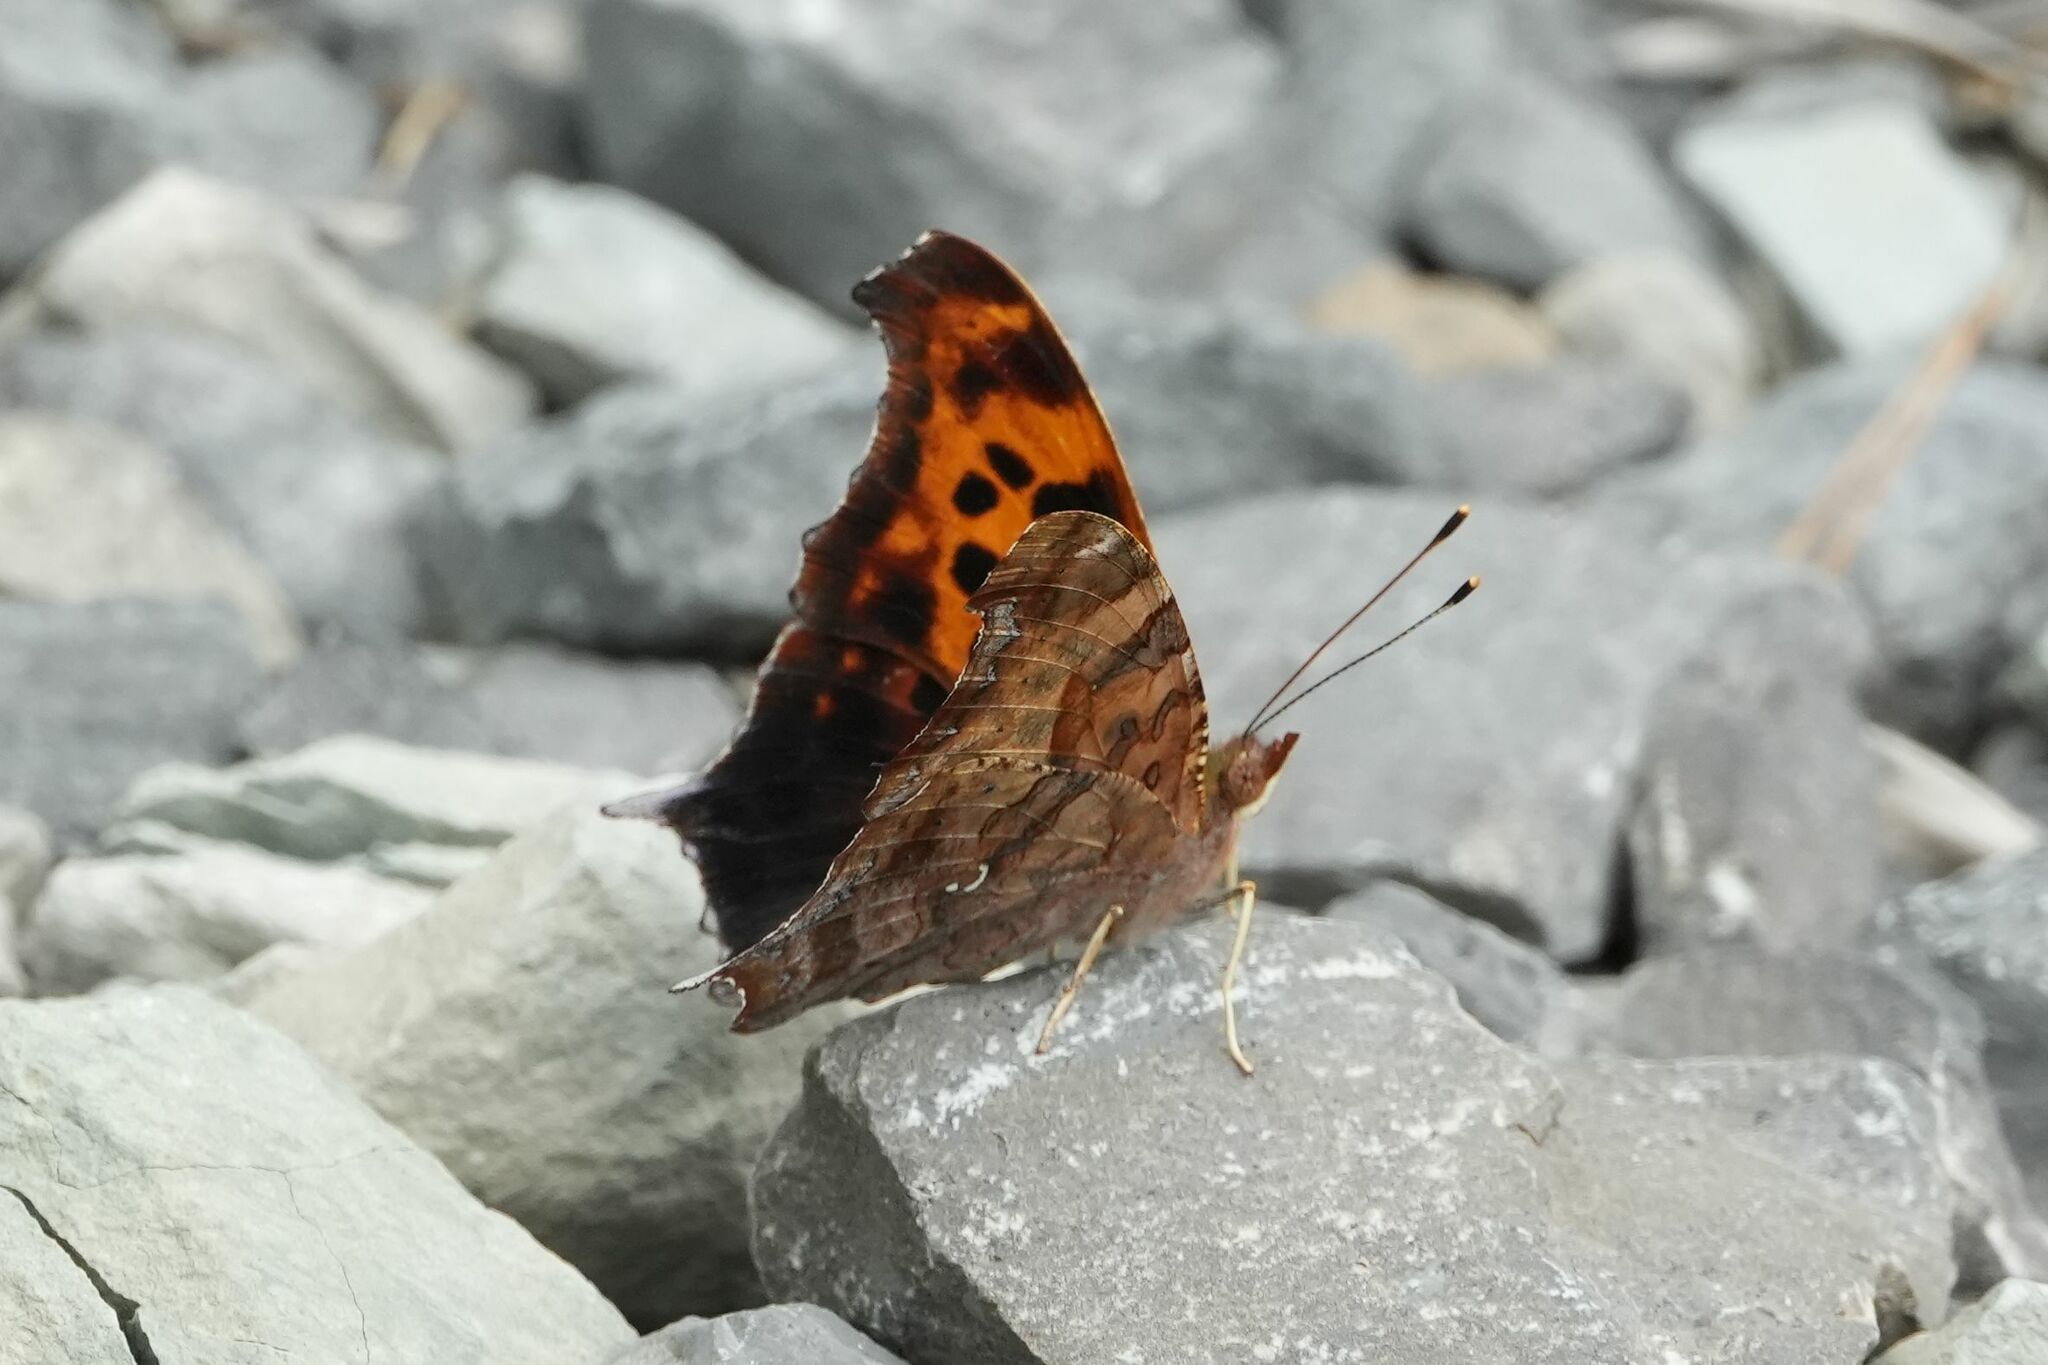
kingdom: Animalia
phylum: Arthropoda
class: Insecta
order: Lepidoptera
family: Nymphalidae
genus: Polygonia
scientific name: Polygonia interrogationis
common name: Question mark
